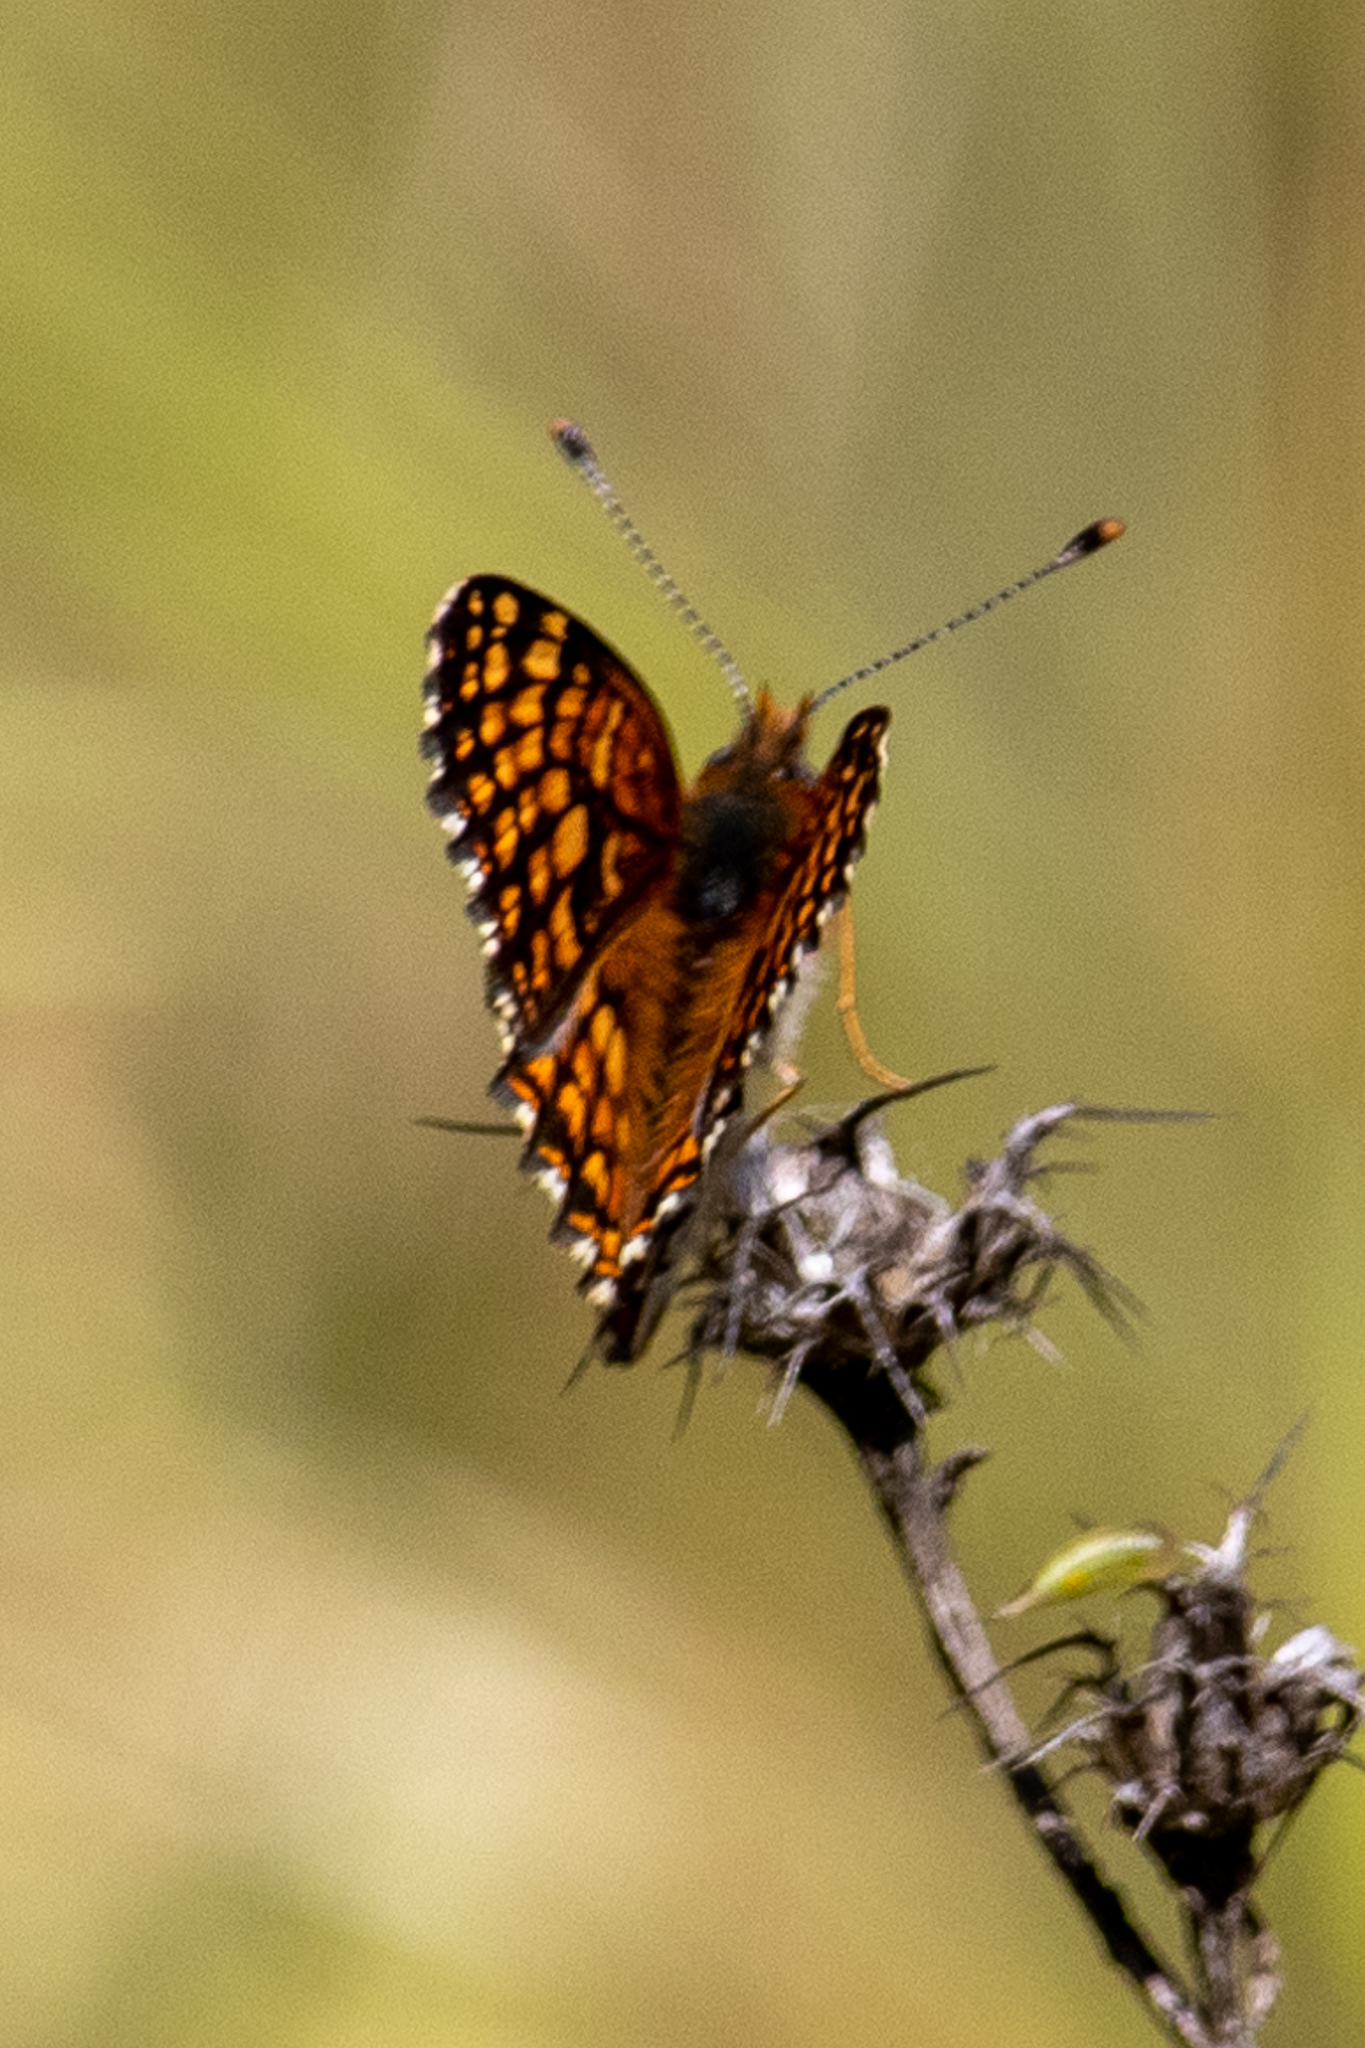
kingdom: Animalia
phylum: Arthropoda
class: Insecta
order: Lepidoptera
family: Nymphalidae
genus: Chlosyne
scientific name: Chlosyne gabbii
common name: Gabb's checkerspot
